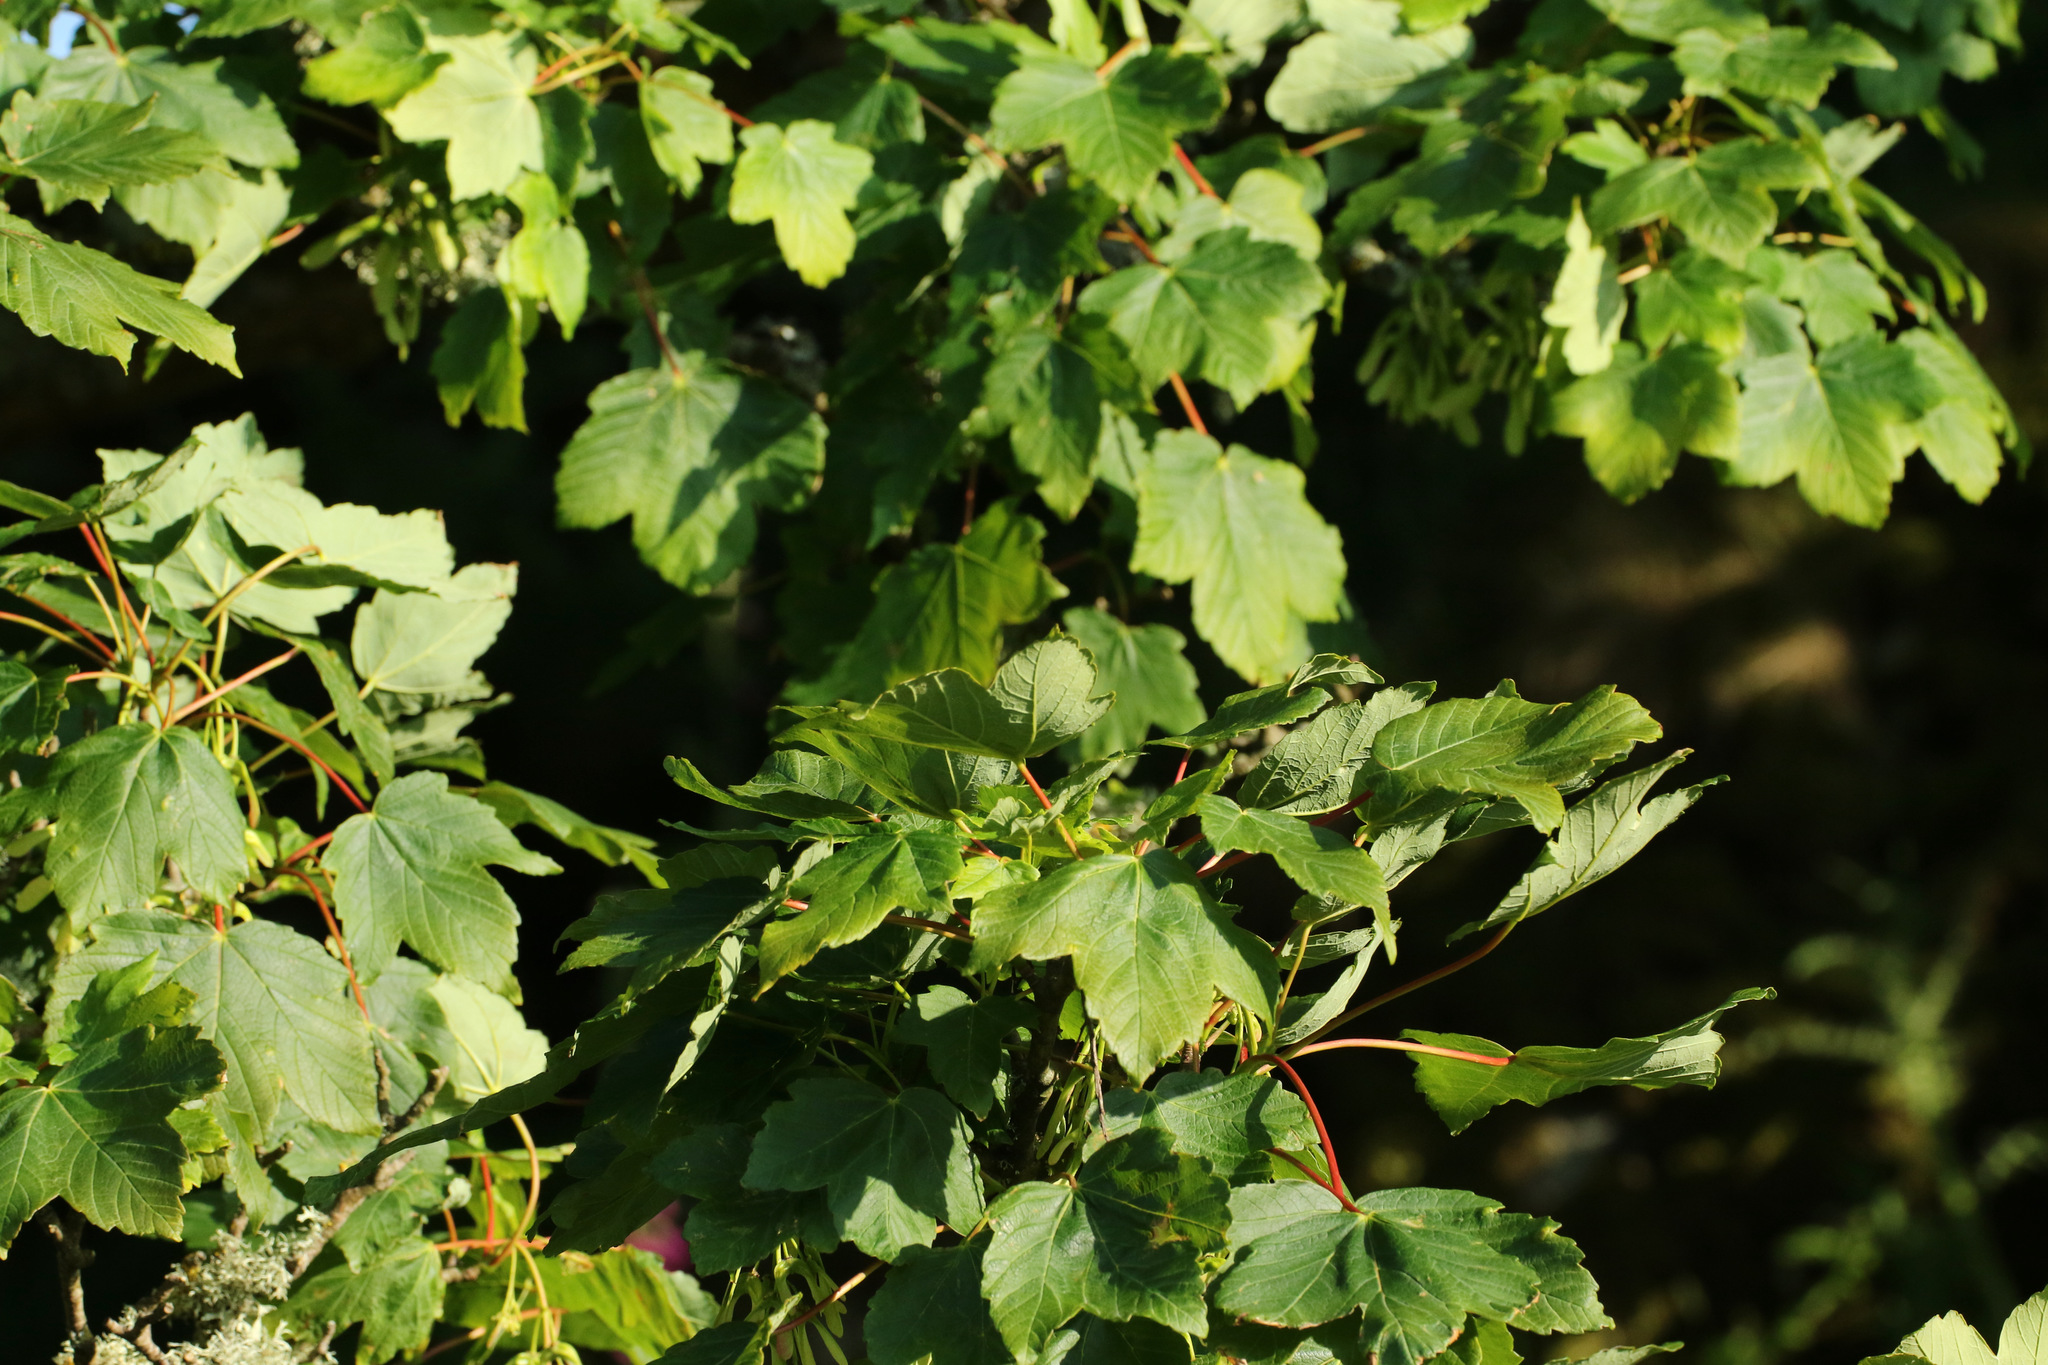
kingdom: Plantae
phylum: Tracheophyta
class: Magnoliopsida
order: Sapindales
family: Sapindaceae
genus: Acer
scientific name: Acer pseudoplatanus
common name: Sycamore
